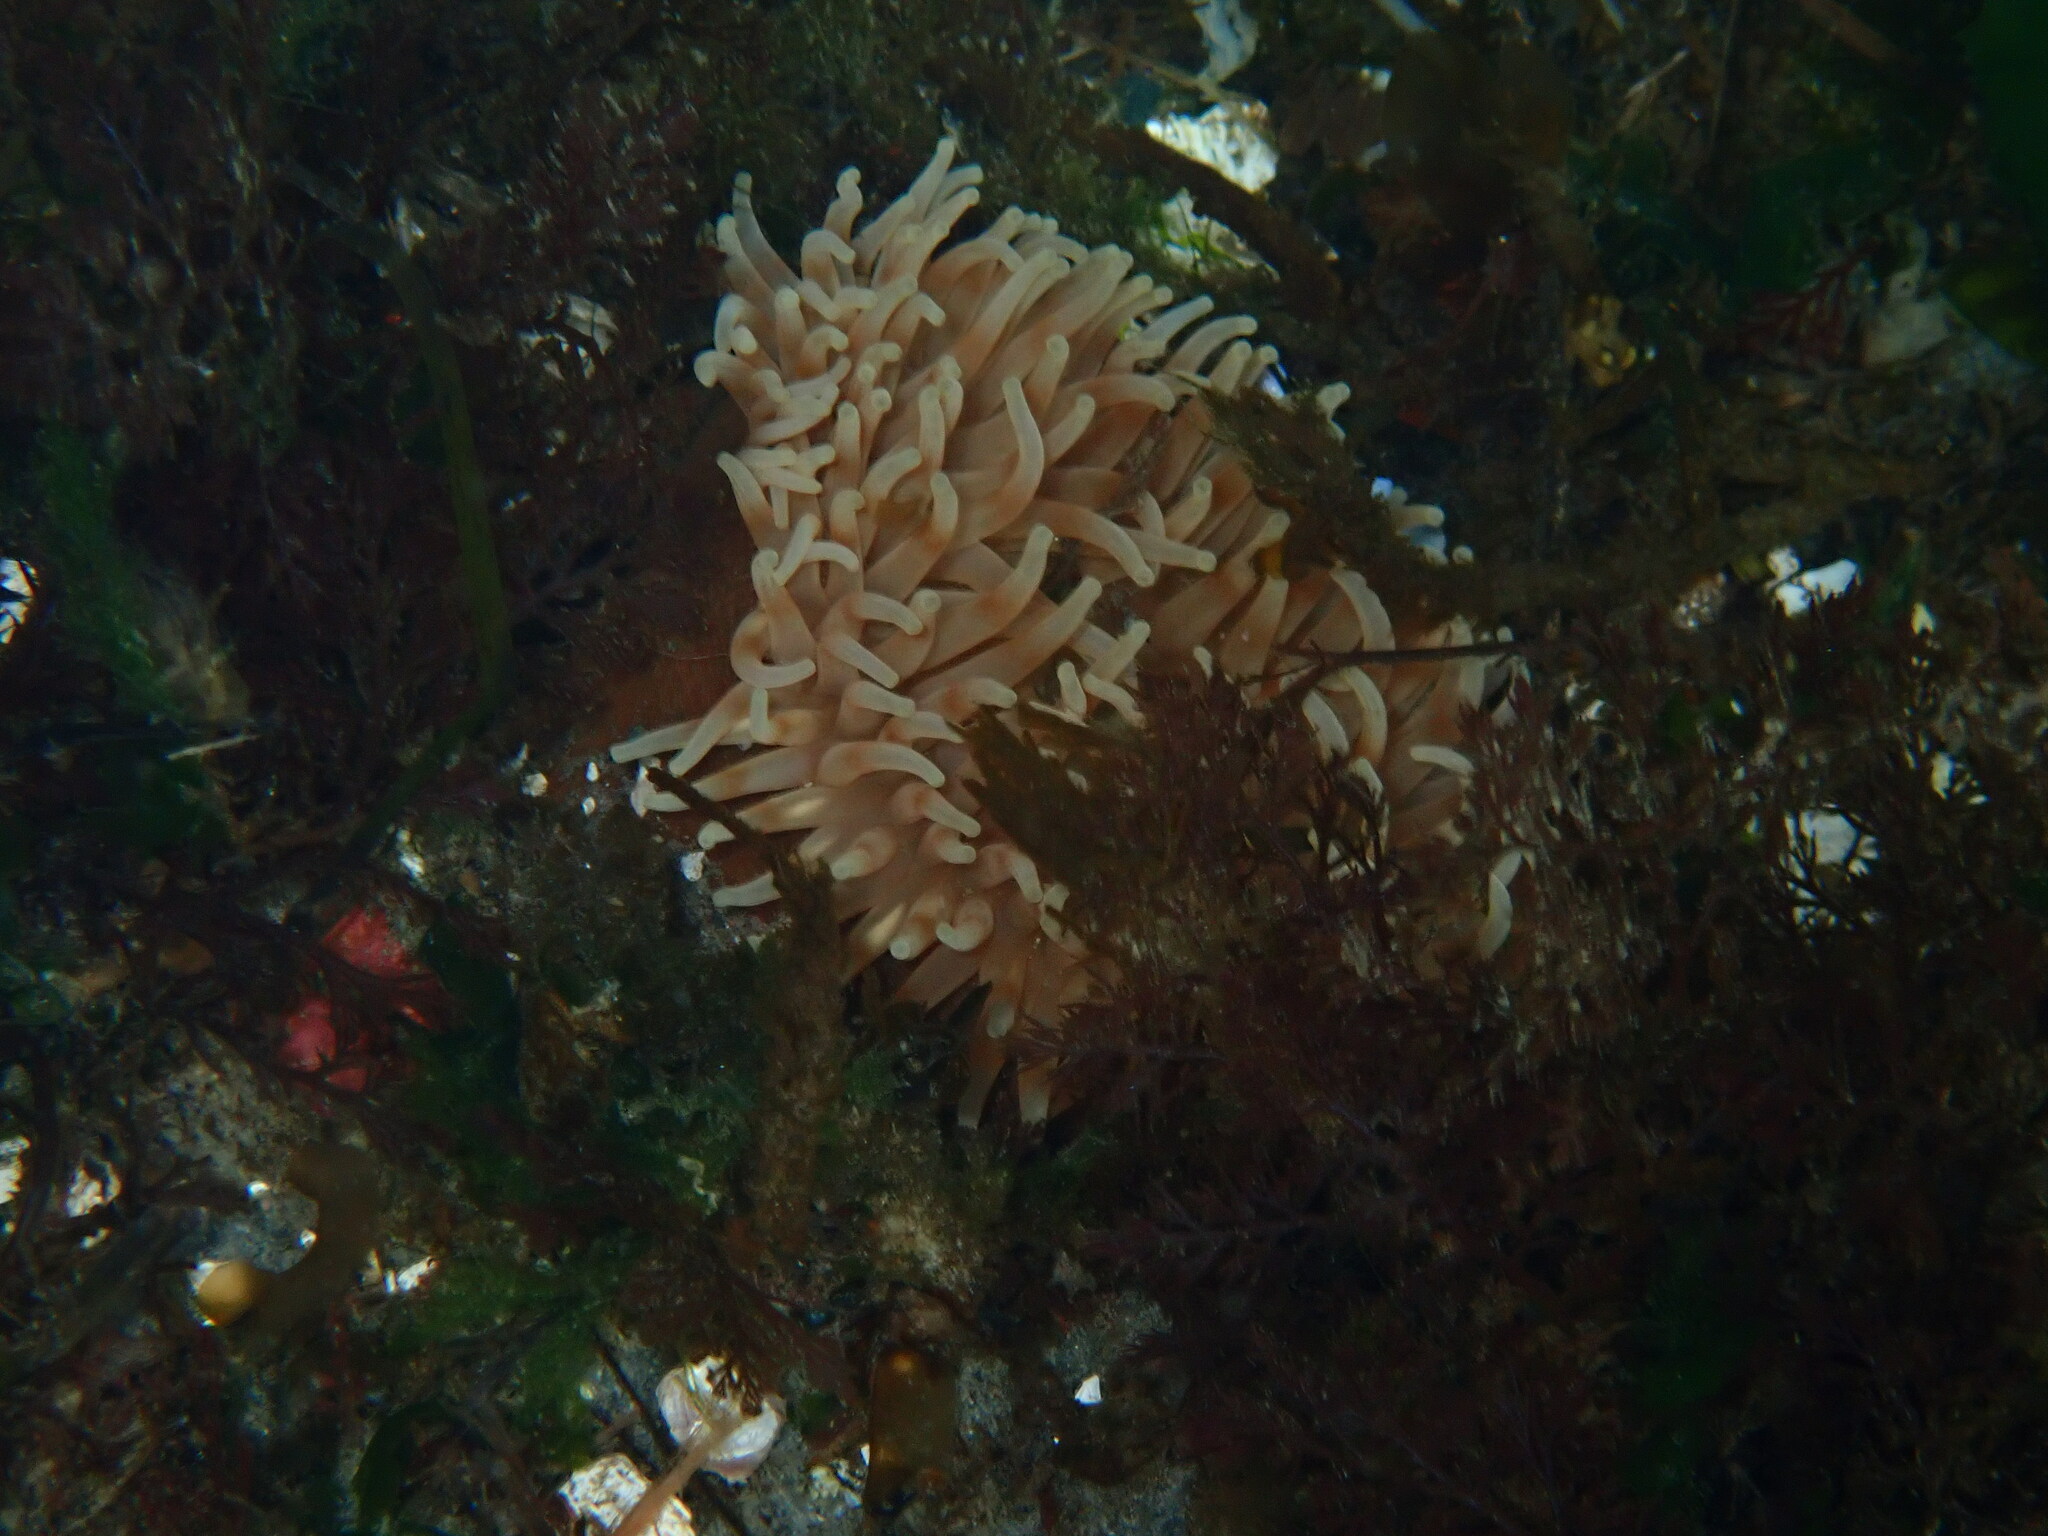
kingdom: Animalia
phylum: Cnidaria
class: Anthozoa
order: Actiniaria
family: Actiniidae
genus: Urticina
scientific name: Urticina grebelnyi
